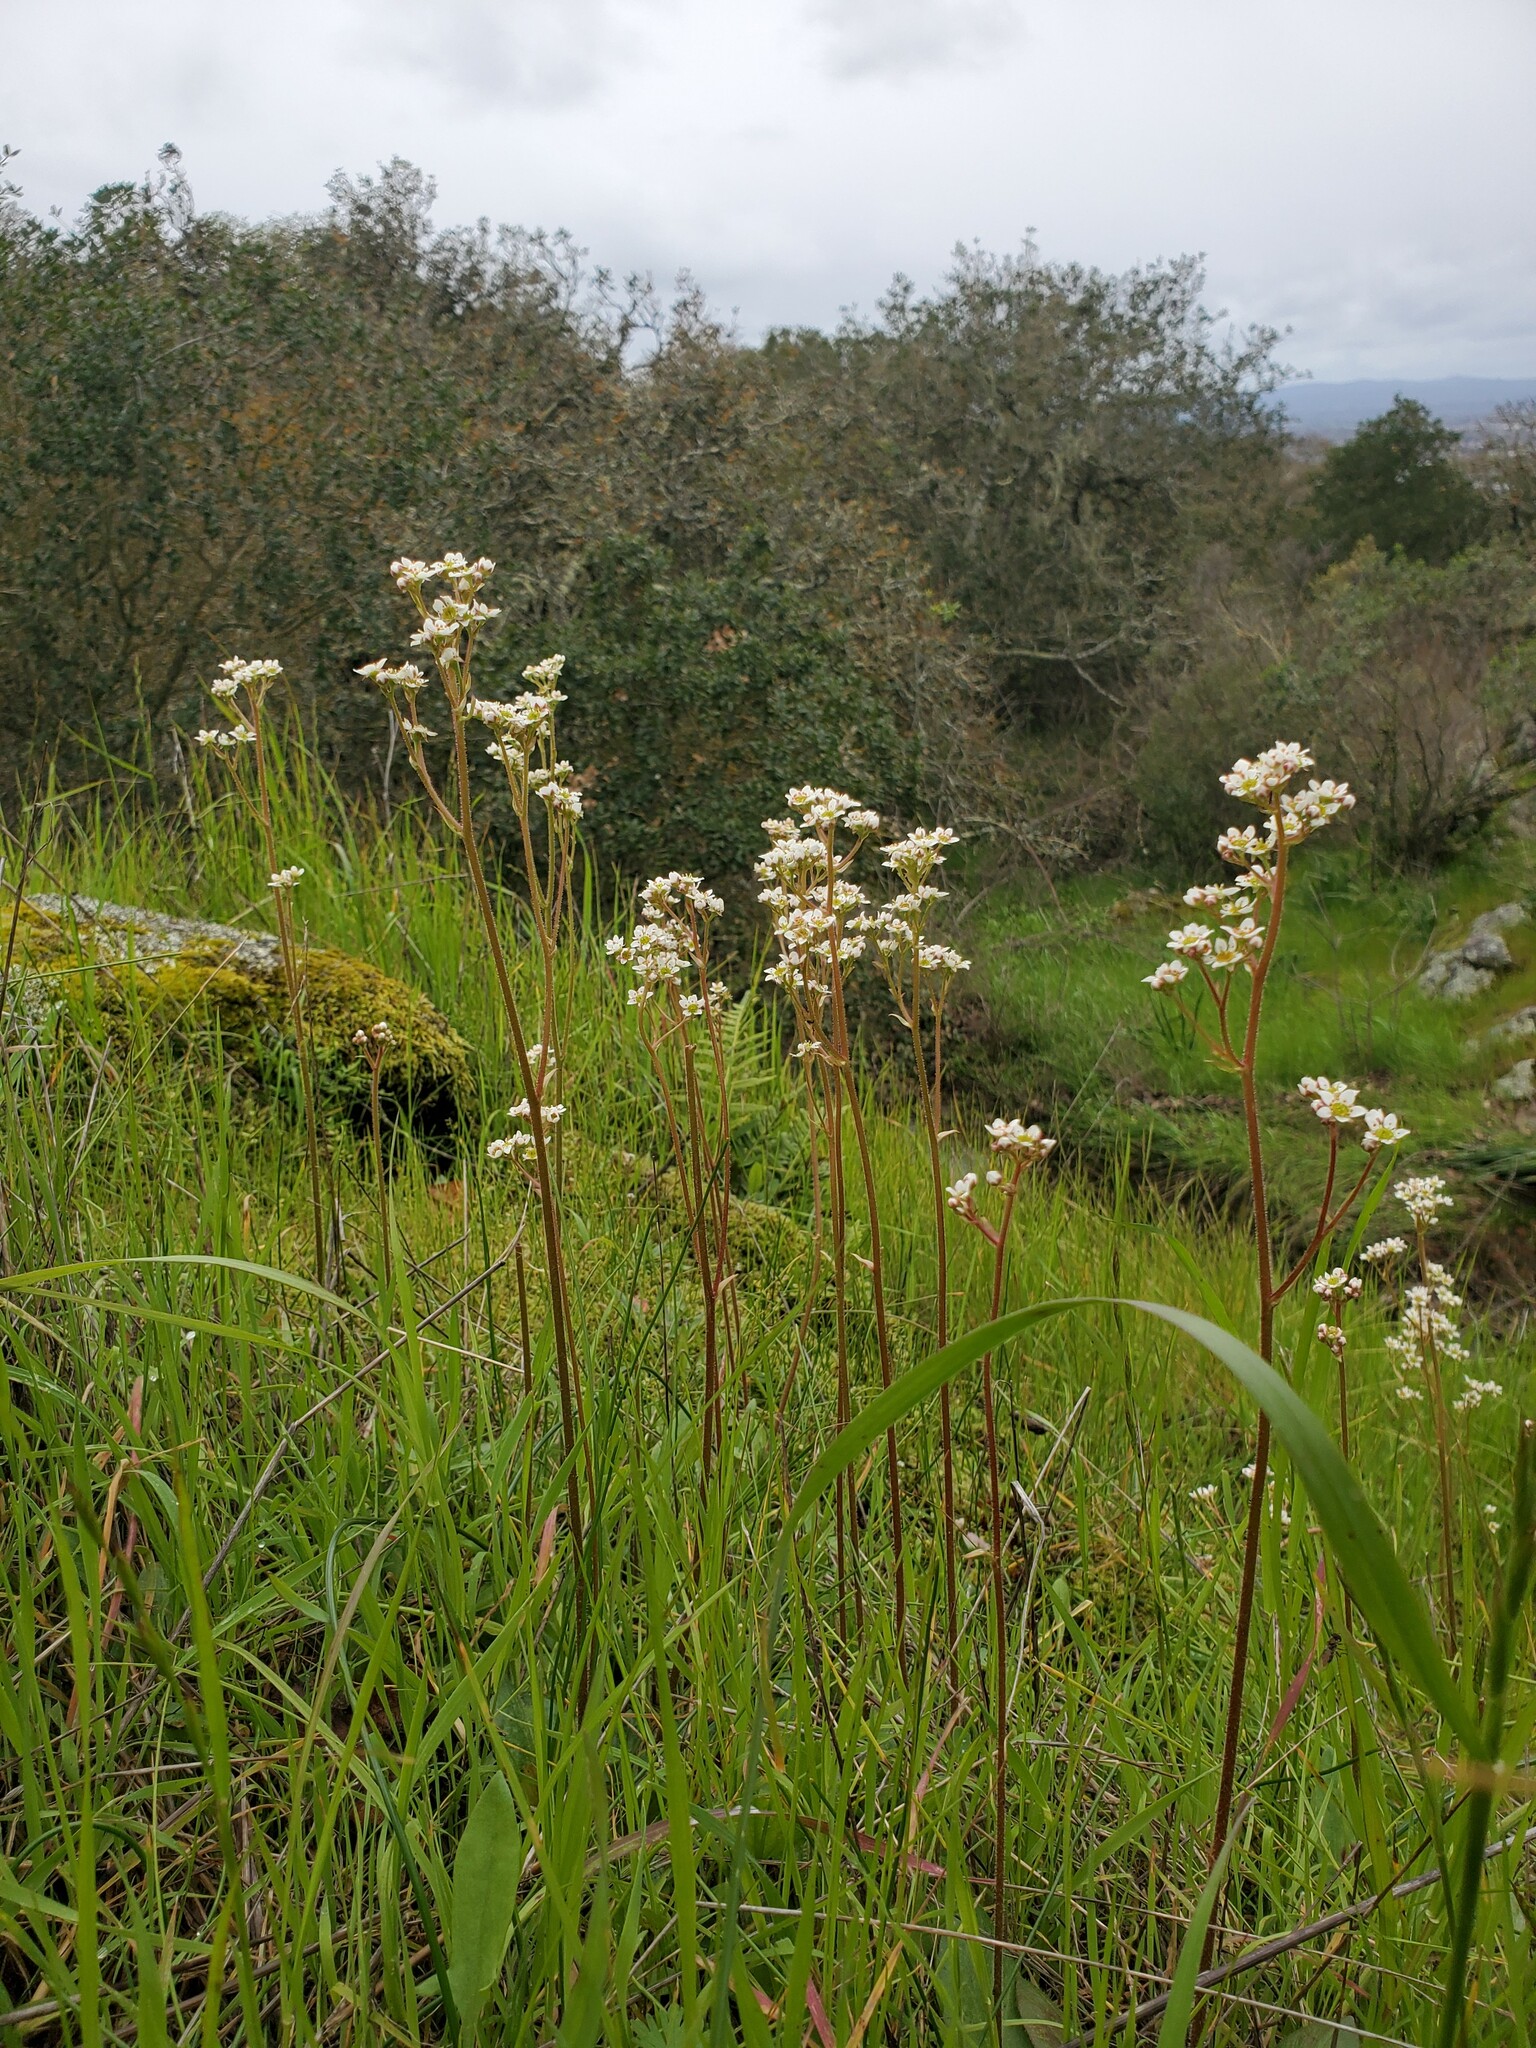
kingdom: Plantae
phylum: Tracheophyta
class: Magnoliopsida
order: Saxifragales
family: Saxifragaceae
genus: Micranthes
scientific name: Micranthes californica
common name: California saxifrage
